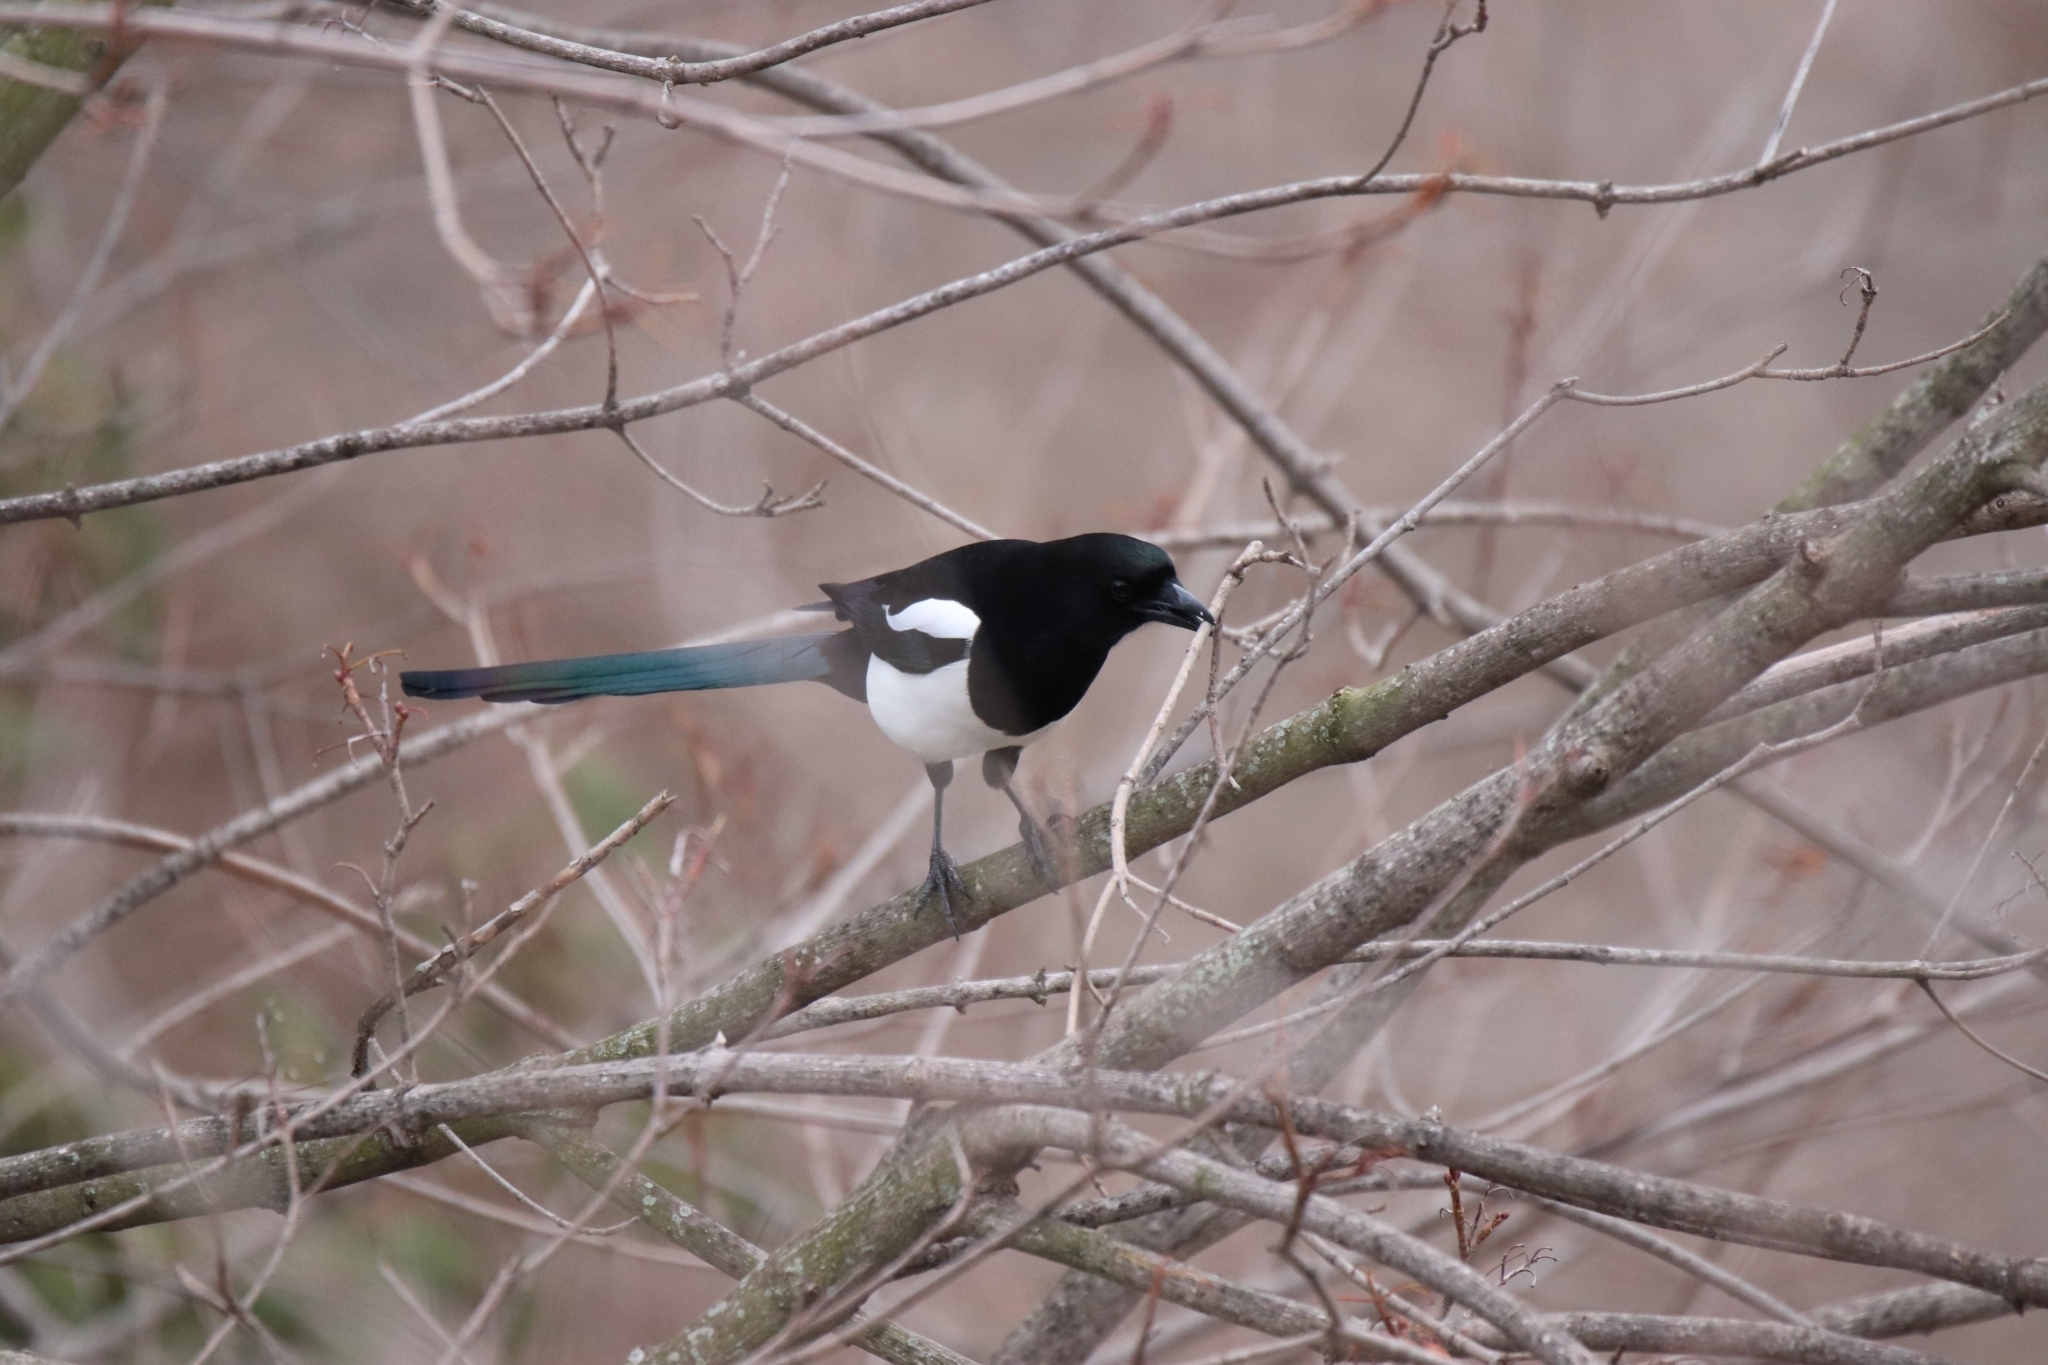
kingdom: Animalia
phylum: Chordata
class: Aves
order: Passeriformes
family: Corvidae
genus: Pica
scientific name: Pica pica
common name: Eurasian magpie
